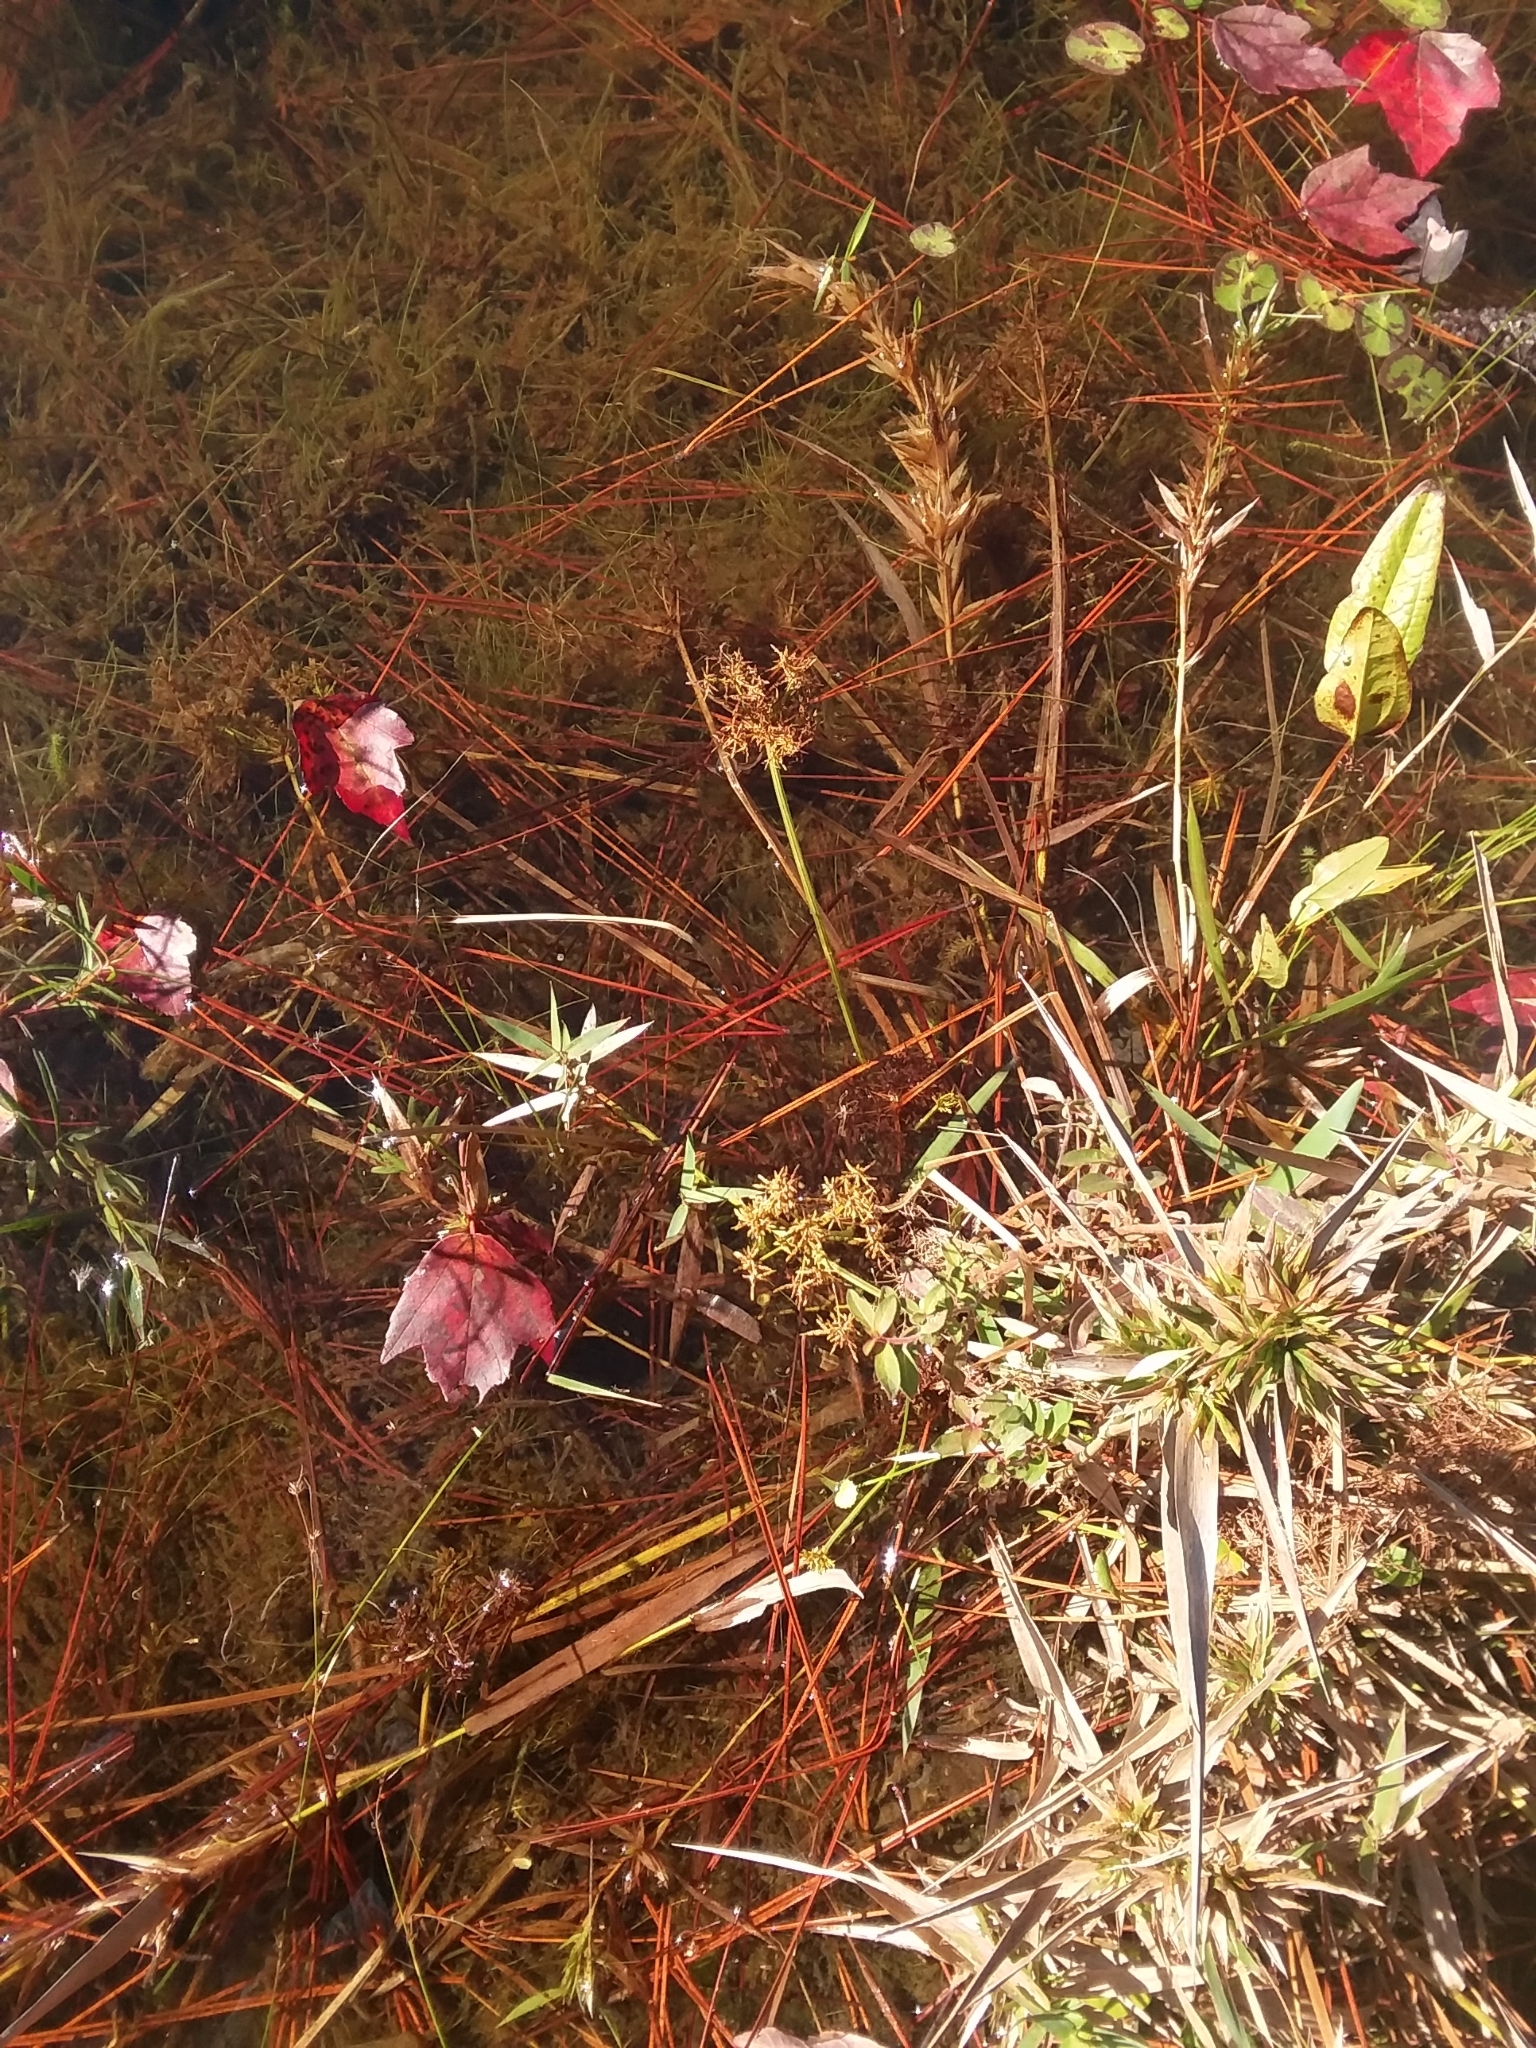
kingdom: Plantae
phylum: Tracheophyta
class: Liliopsida
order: Poales
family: Cyperaceae
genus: Cyperus
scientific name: Cyperus haspan
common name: Haspan flatsedge
